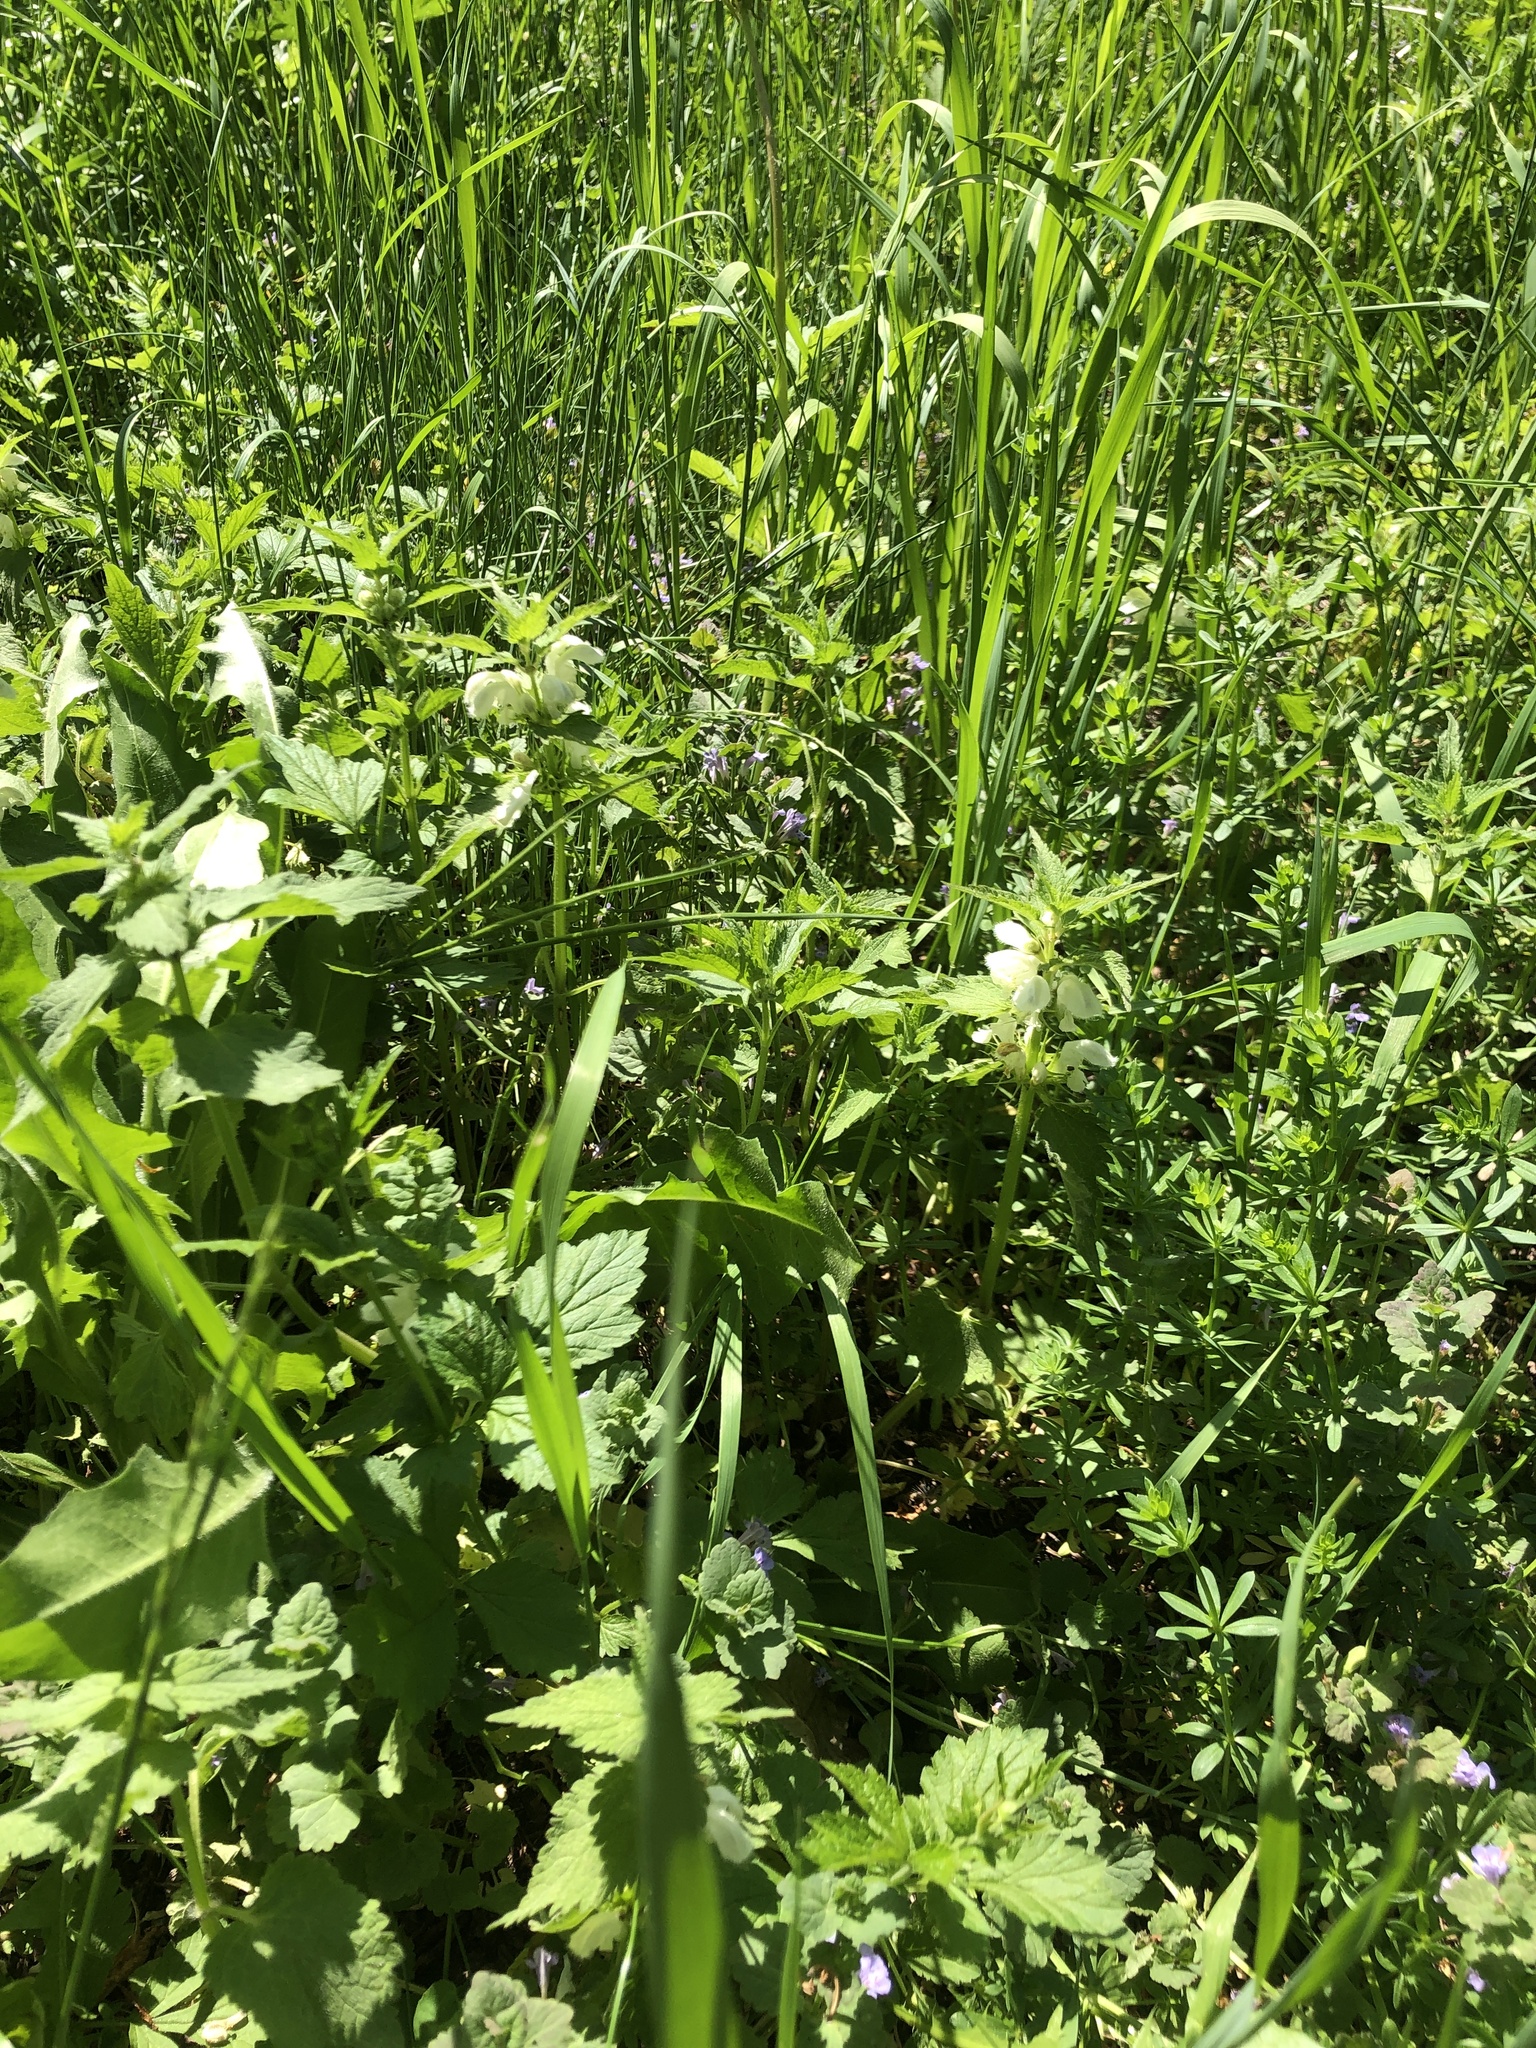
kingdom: Plantae
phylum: Tracheophyta
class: Magnoliopsida
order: Lamiales
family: Lamiaceae
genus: Lamium
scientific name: Lamium album
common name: White dead-nettle
